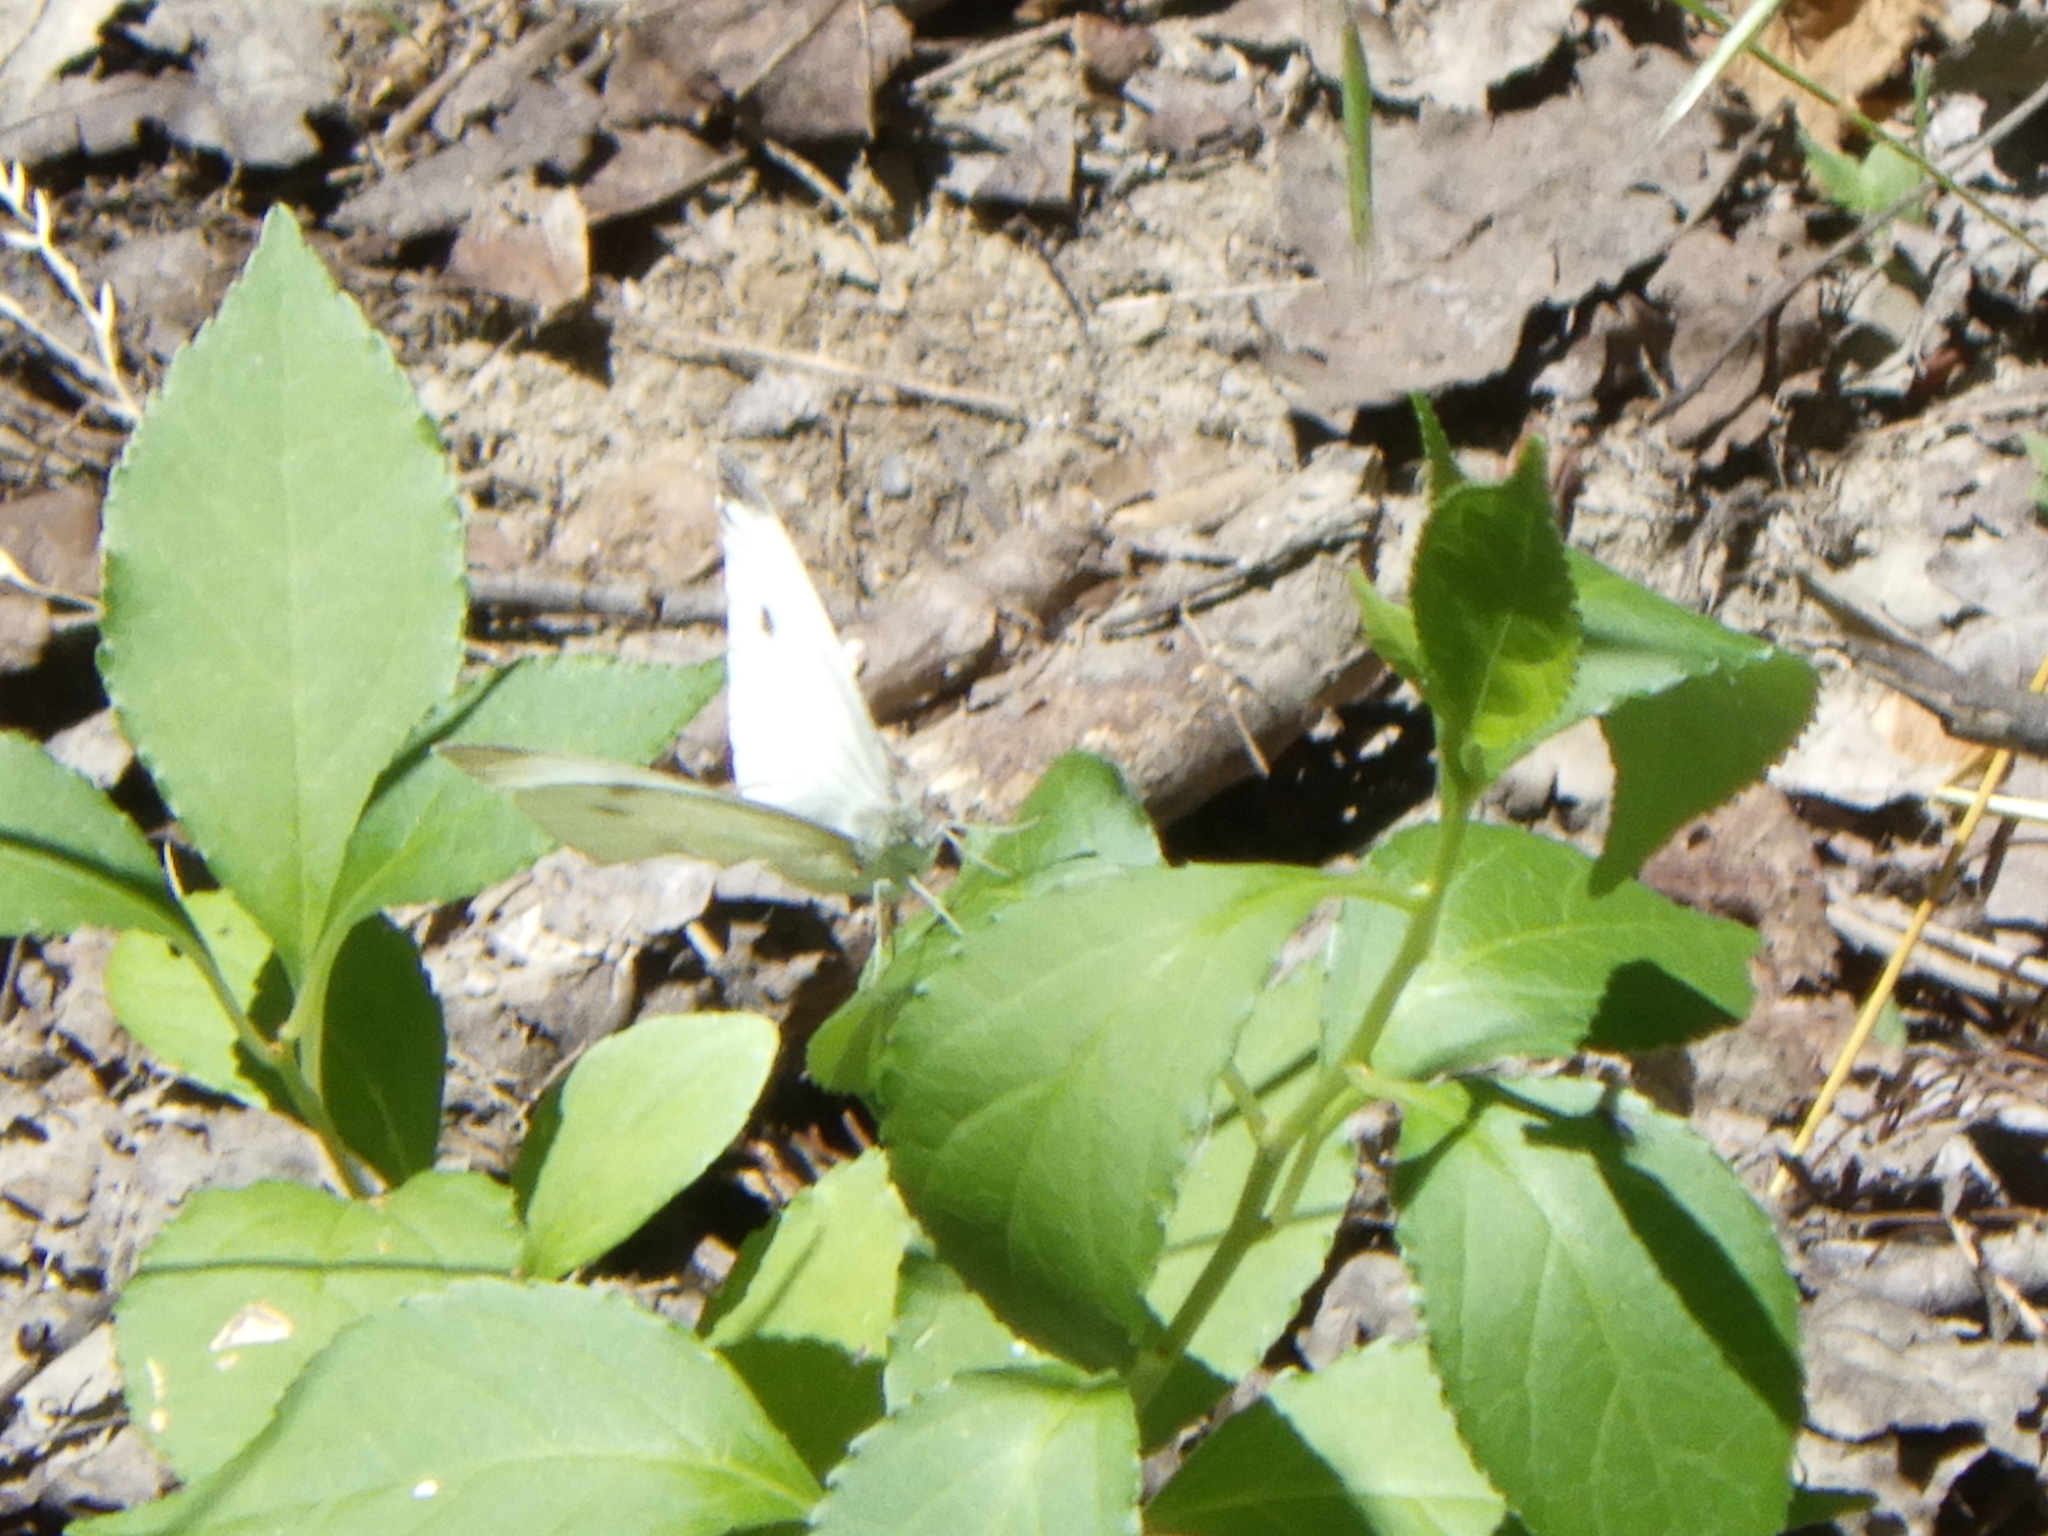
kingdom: Animalia
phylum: Arthropoda
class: Insecta
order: Lepidoptera
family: Pieridae
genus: Pieris
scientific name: Pieris rapae
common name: Small white
